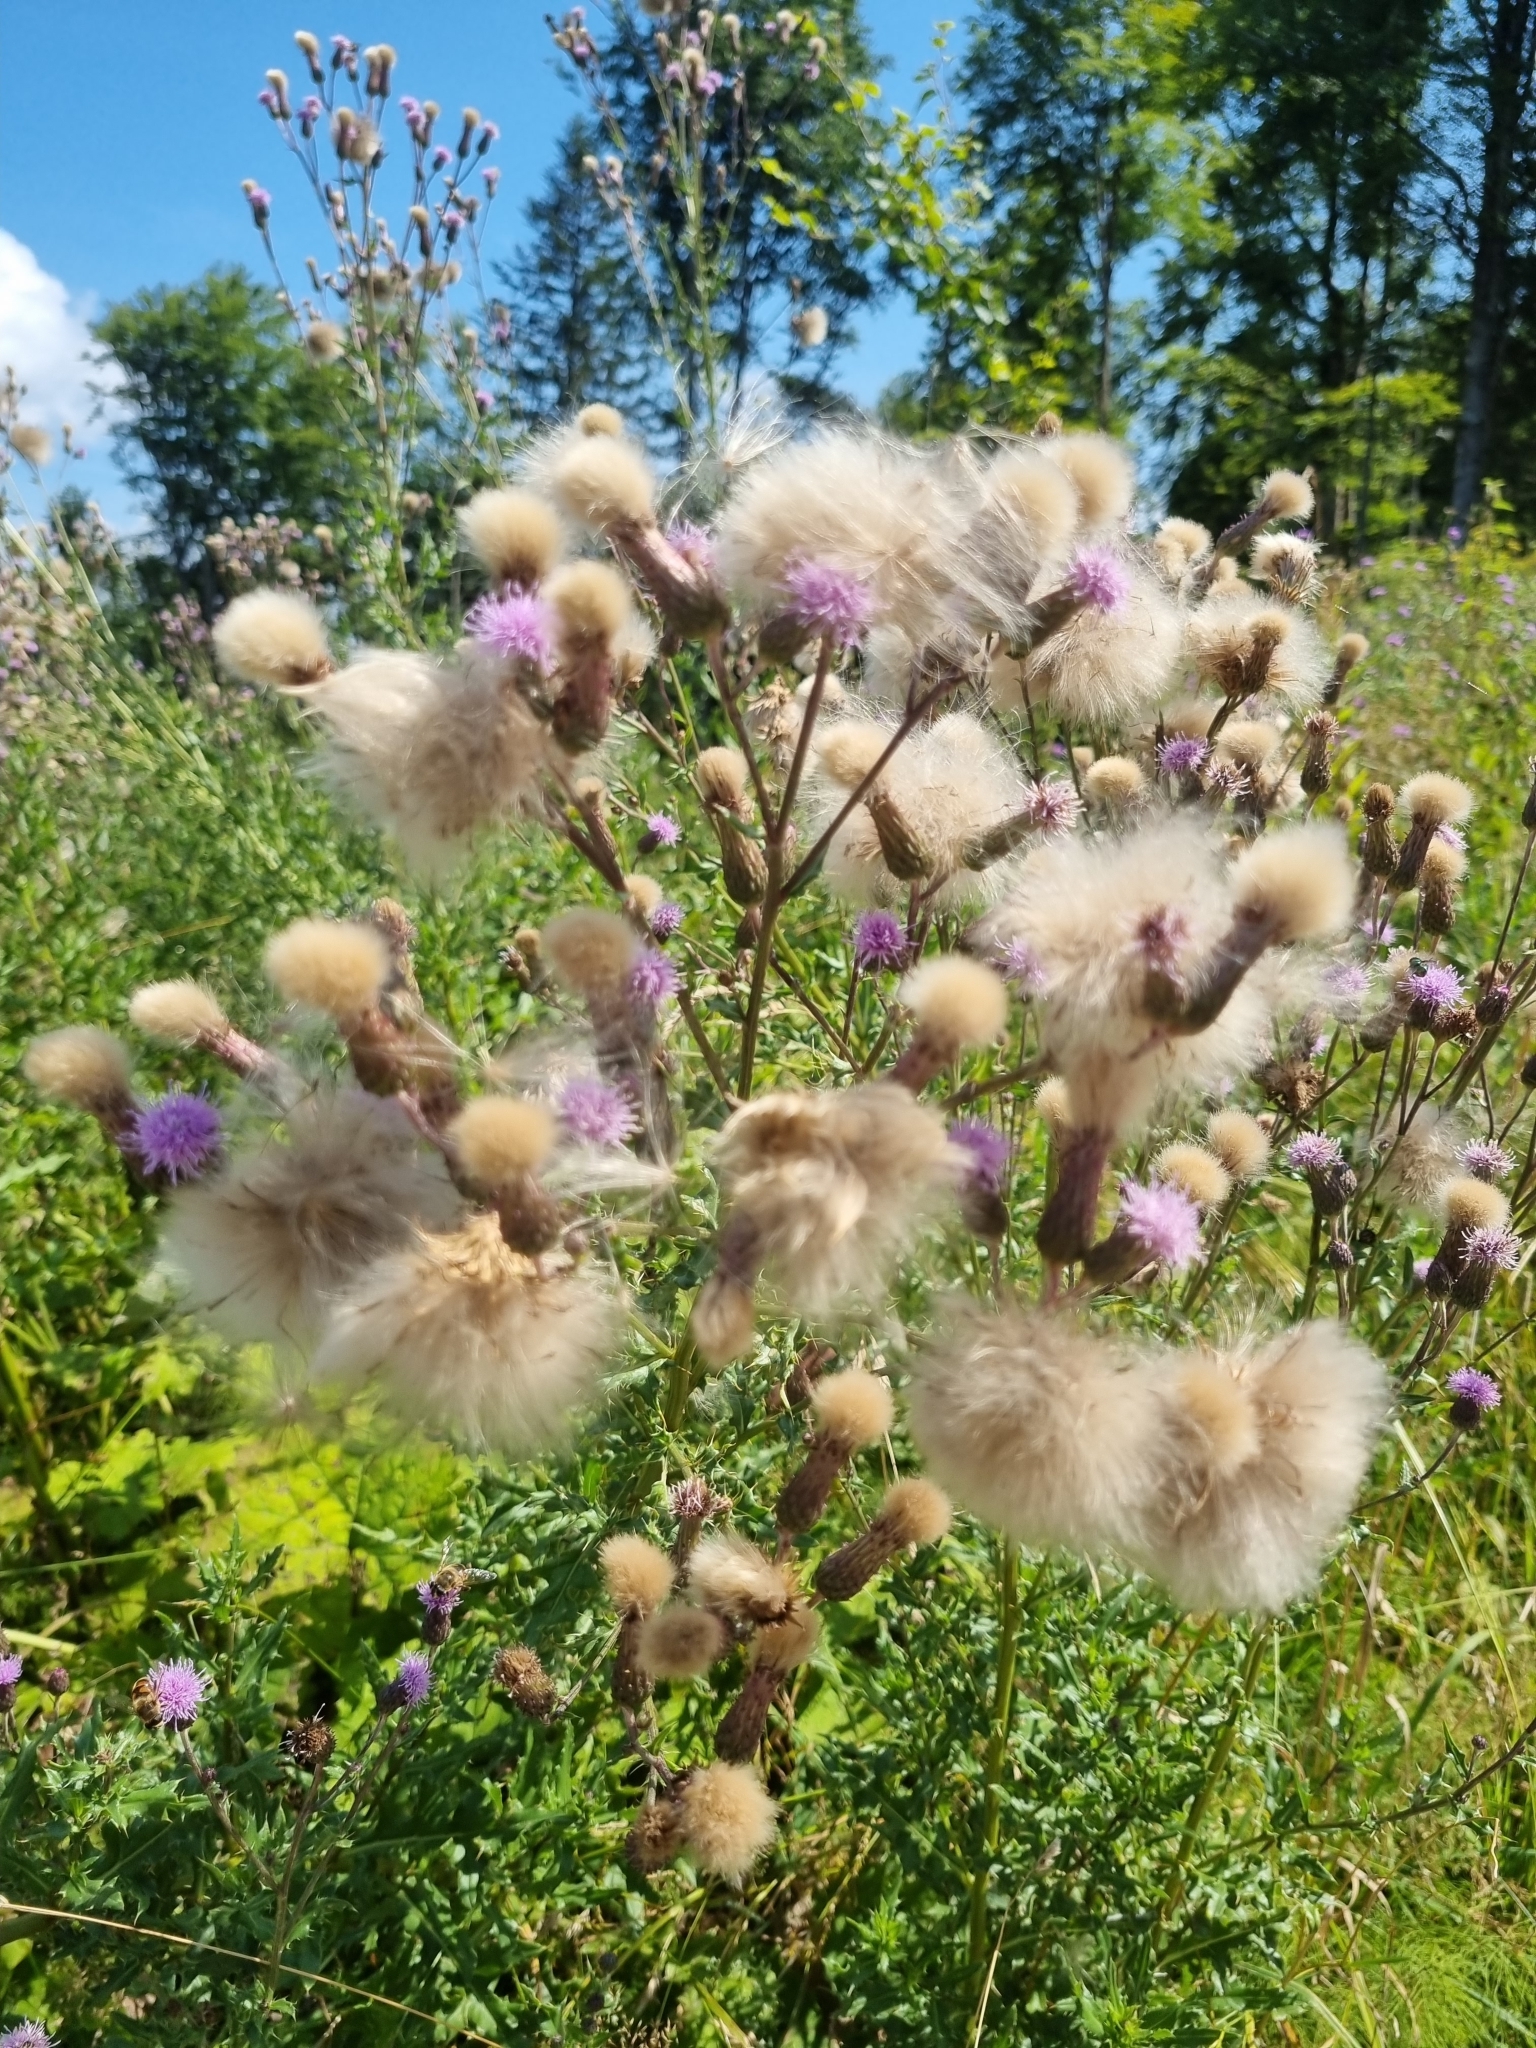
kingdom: Plantae
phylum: Tracheophyta
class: Magnoliopsida
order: Asterales
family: Asteraceae
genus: Cirsium
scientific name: Cirsium arvense
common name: Creeping thistle
